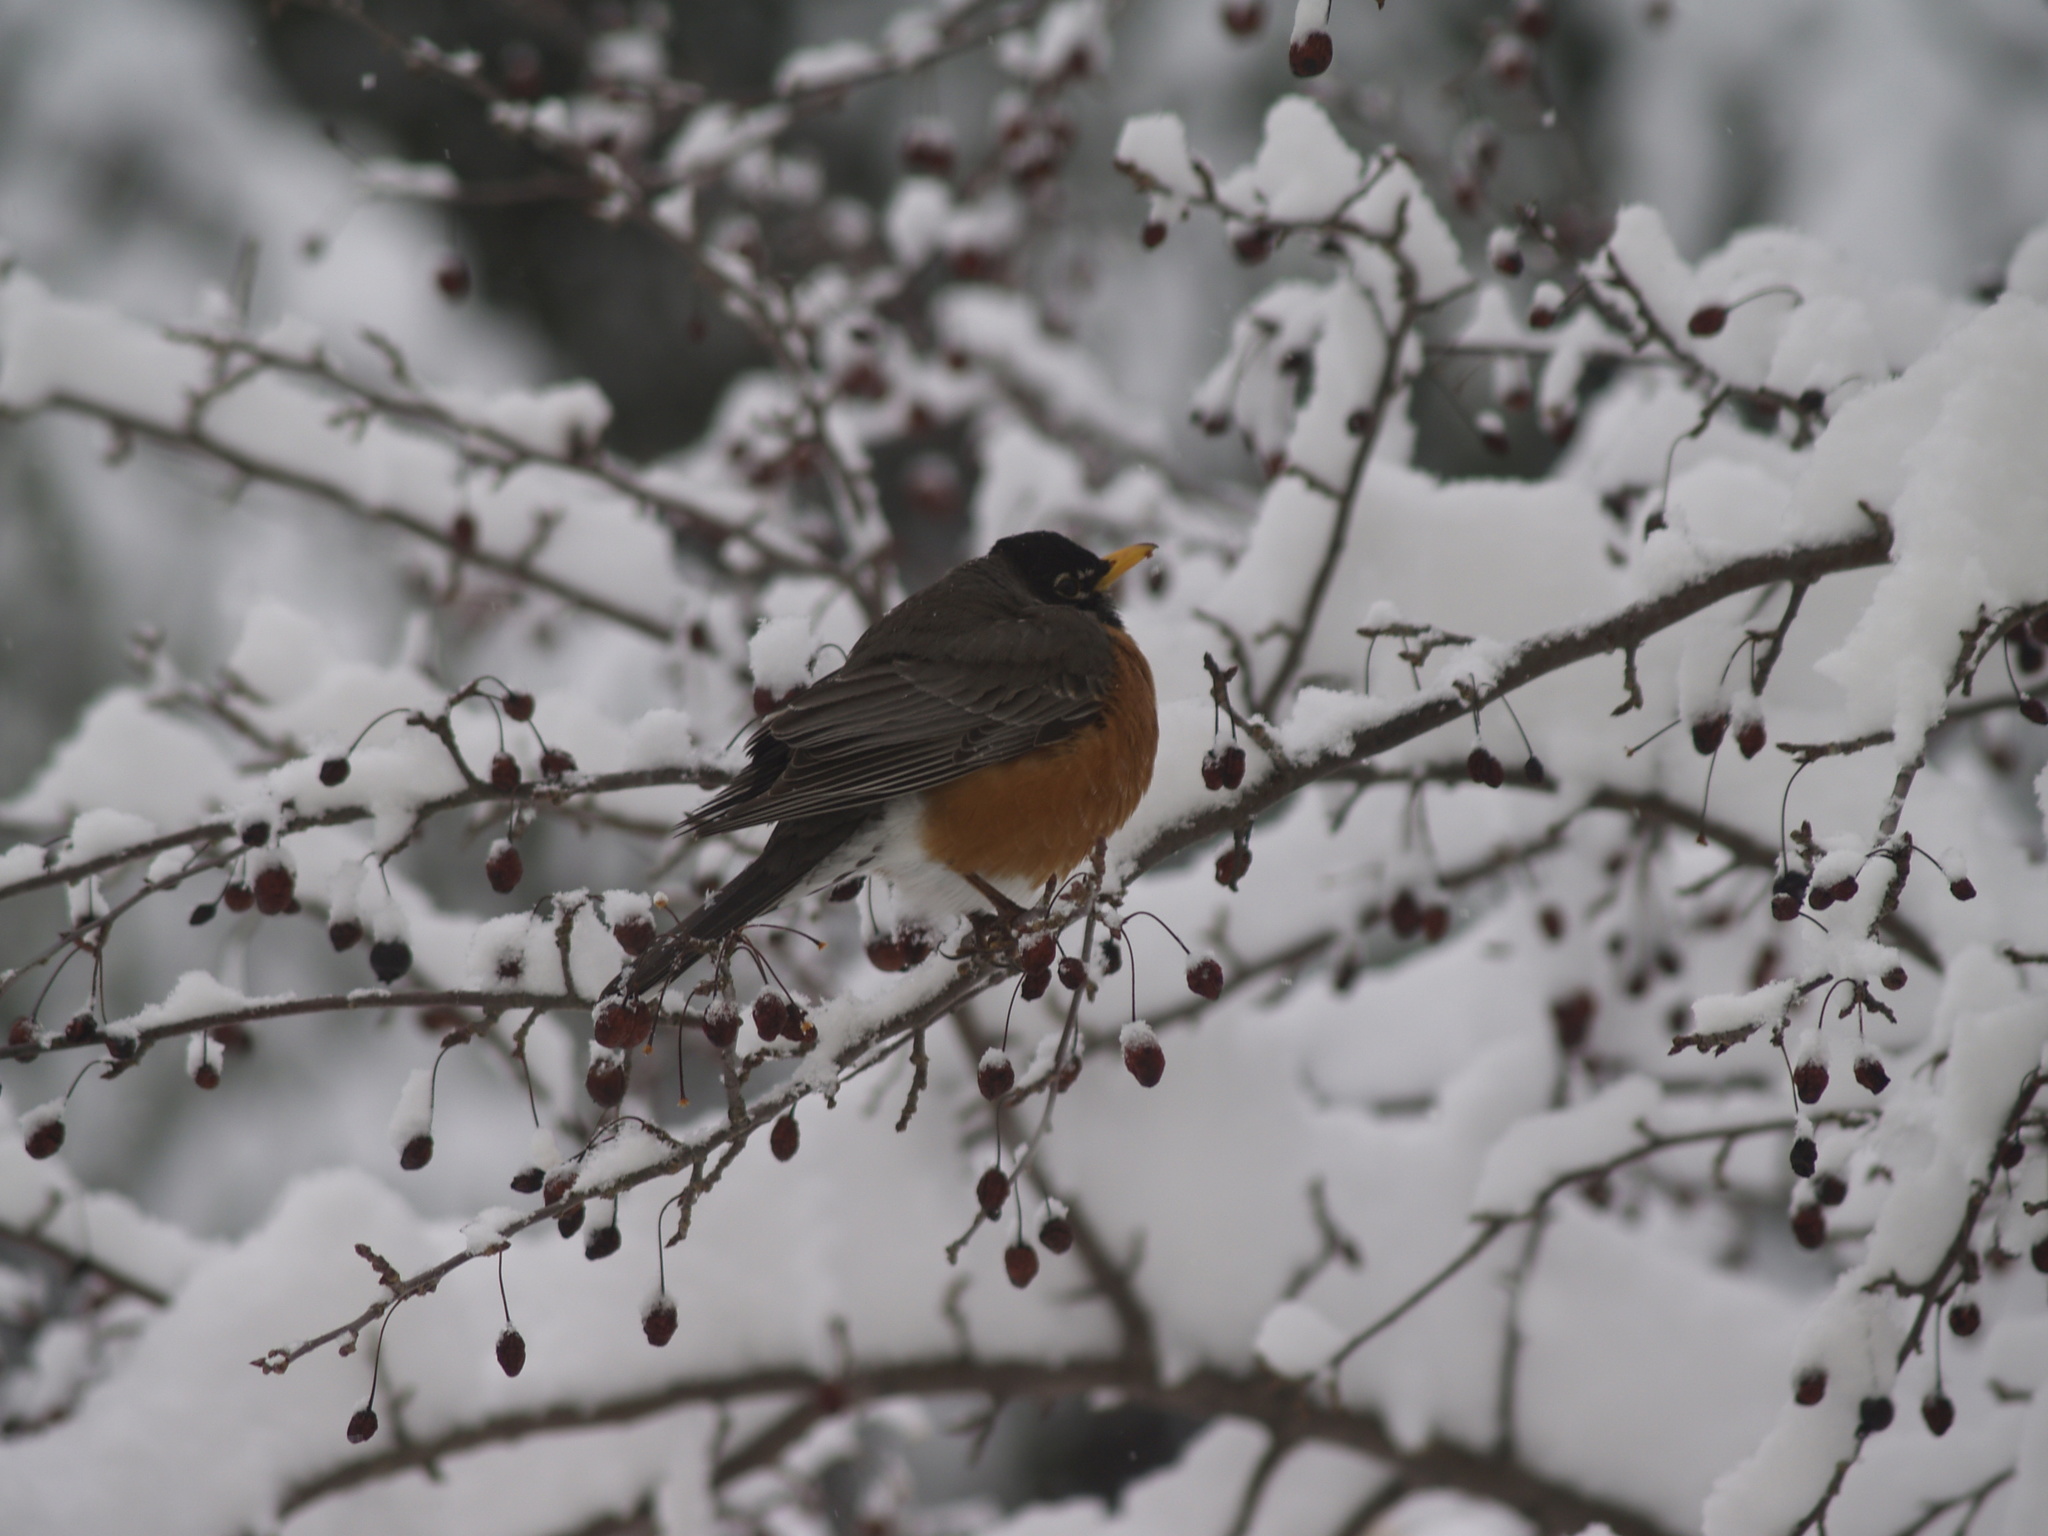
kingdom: Animalia
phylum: Chordata
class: Aves
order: Passeriformes
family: Turdidae
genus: Turdus
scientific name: Turdus migratorius
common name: American robin
